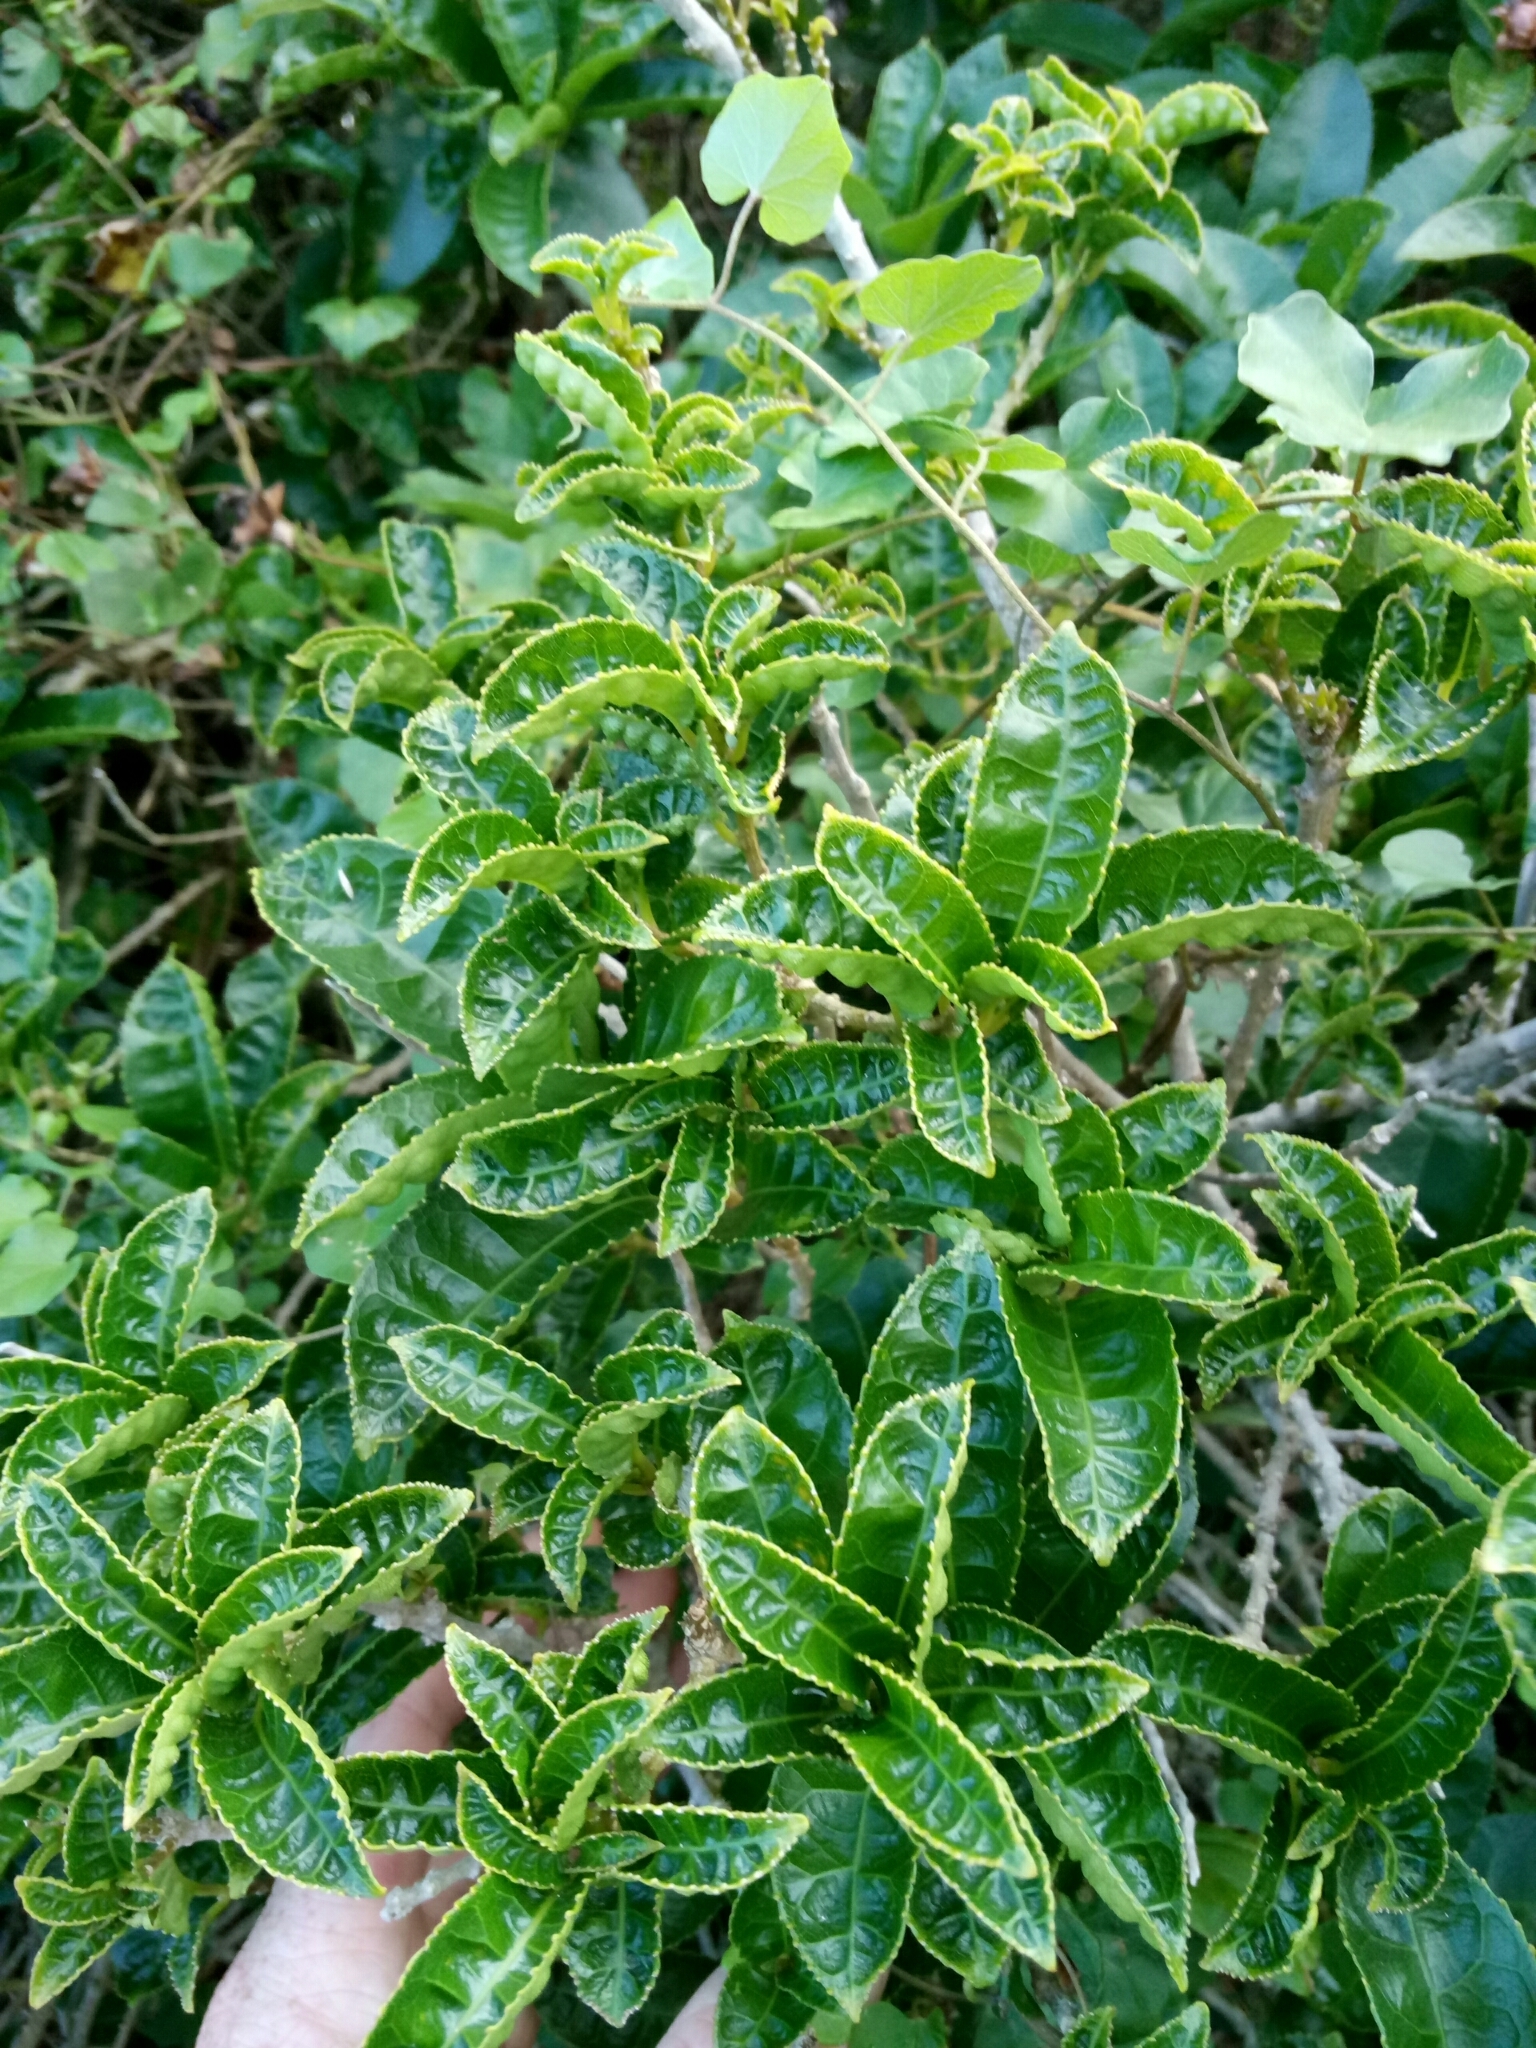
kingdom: Plantae
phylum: Tracheophyta
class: Magnoliopsida
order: Malpighiales
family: Violaceae
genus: Melicytus
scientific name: Melicytus ramiflorus
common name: Mahoe
